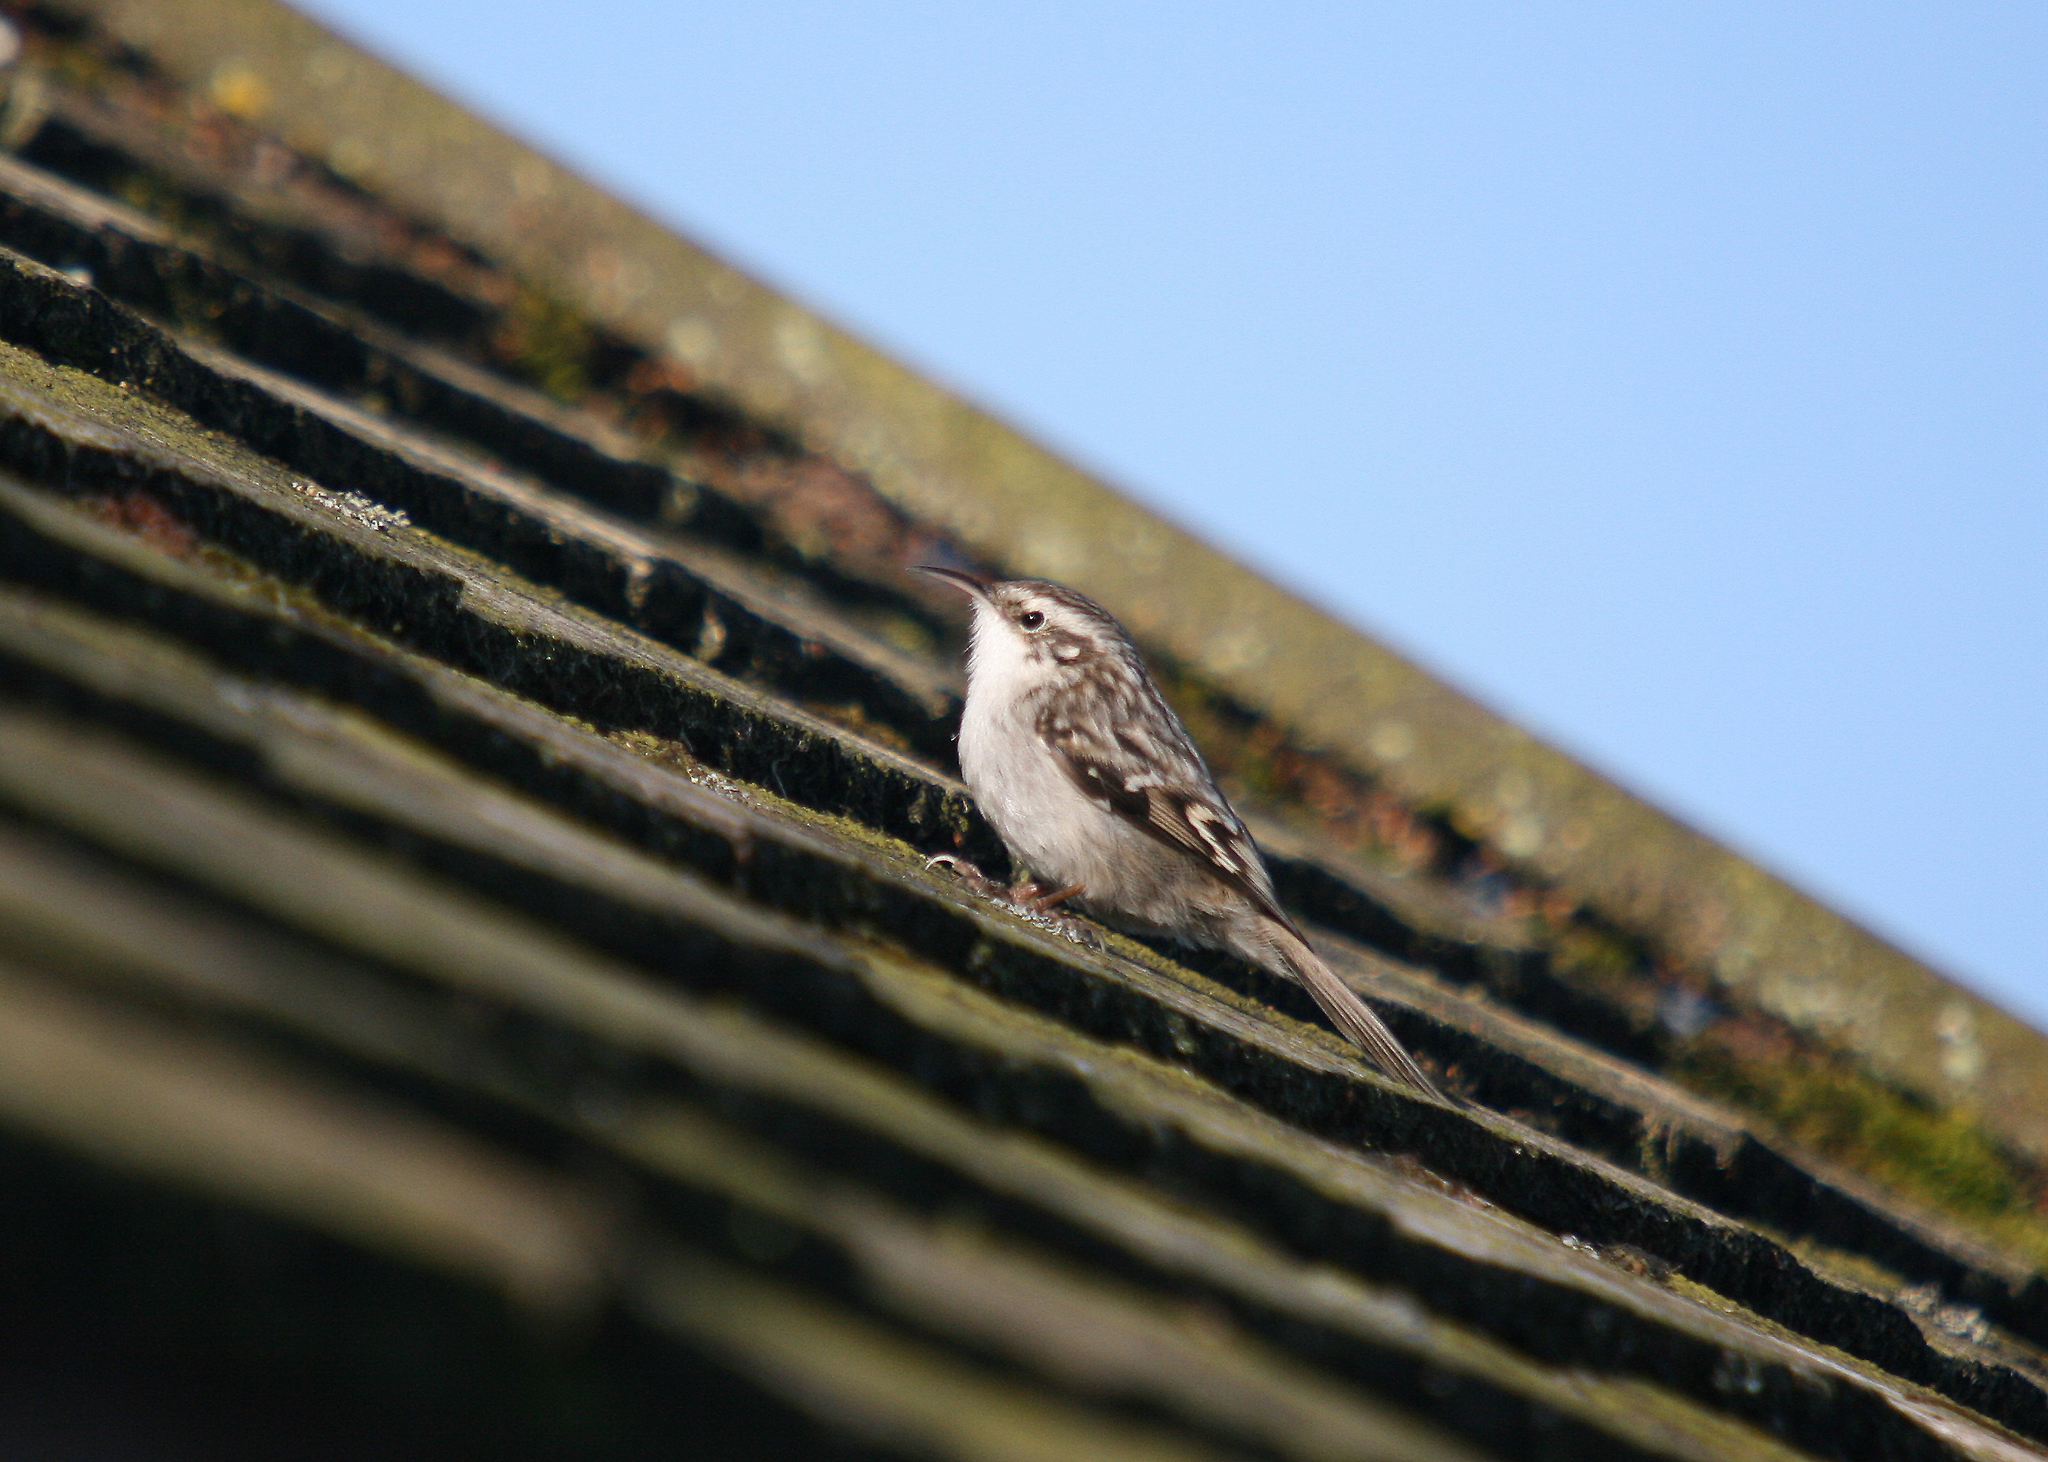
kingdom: Animalia
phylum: Chordata
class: Aves
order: Passeriformes
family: Certhiidae
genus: Certhia
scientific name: Certhia brachydactyla
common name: Short-toed treecreeper
